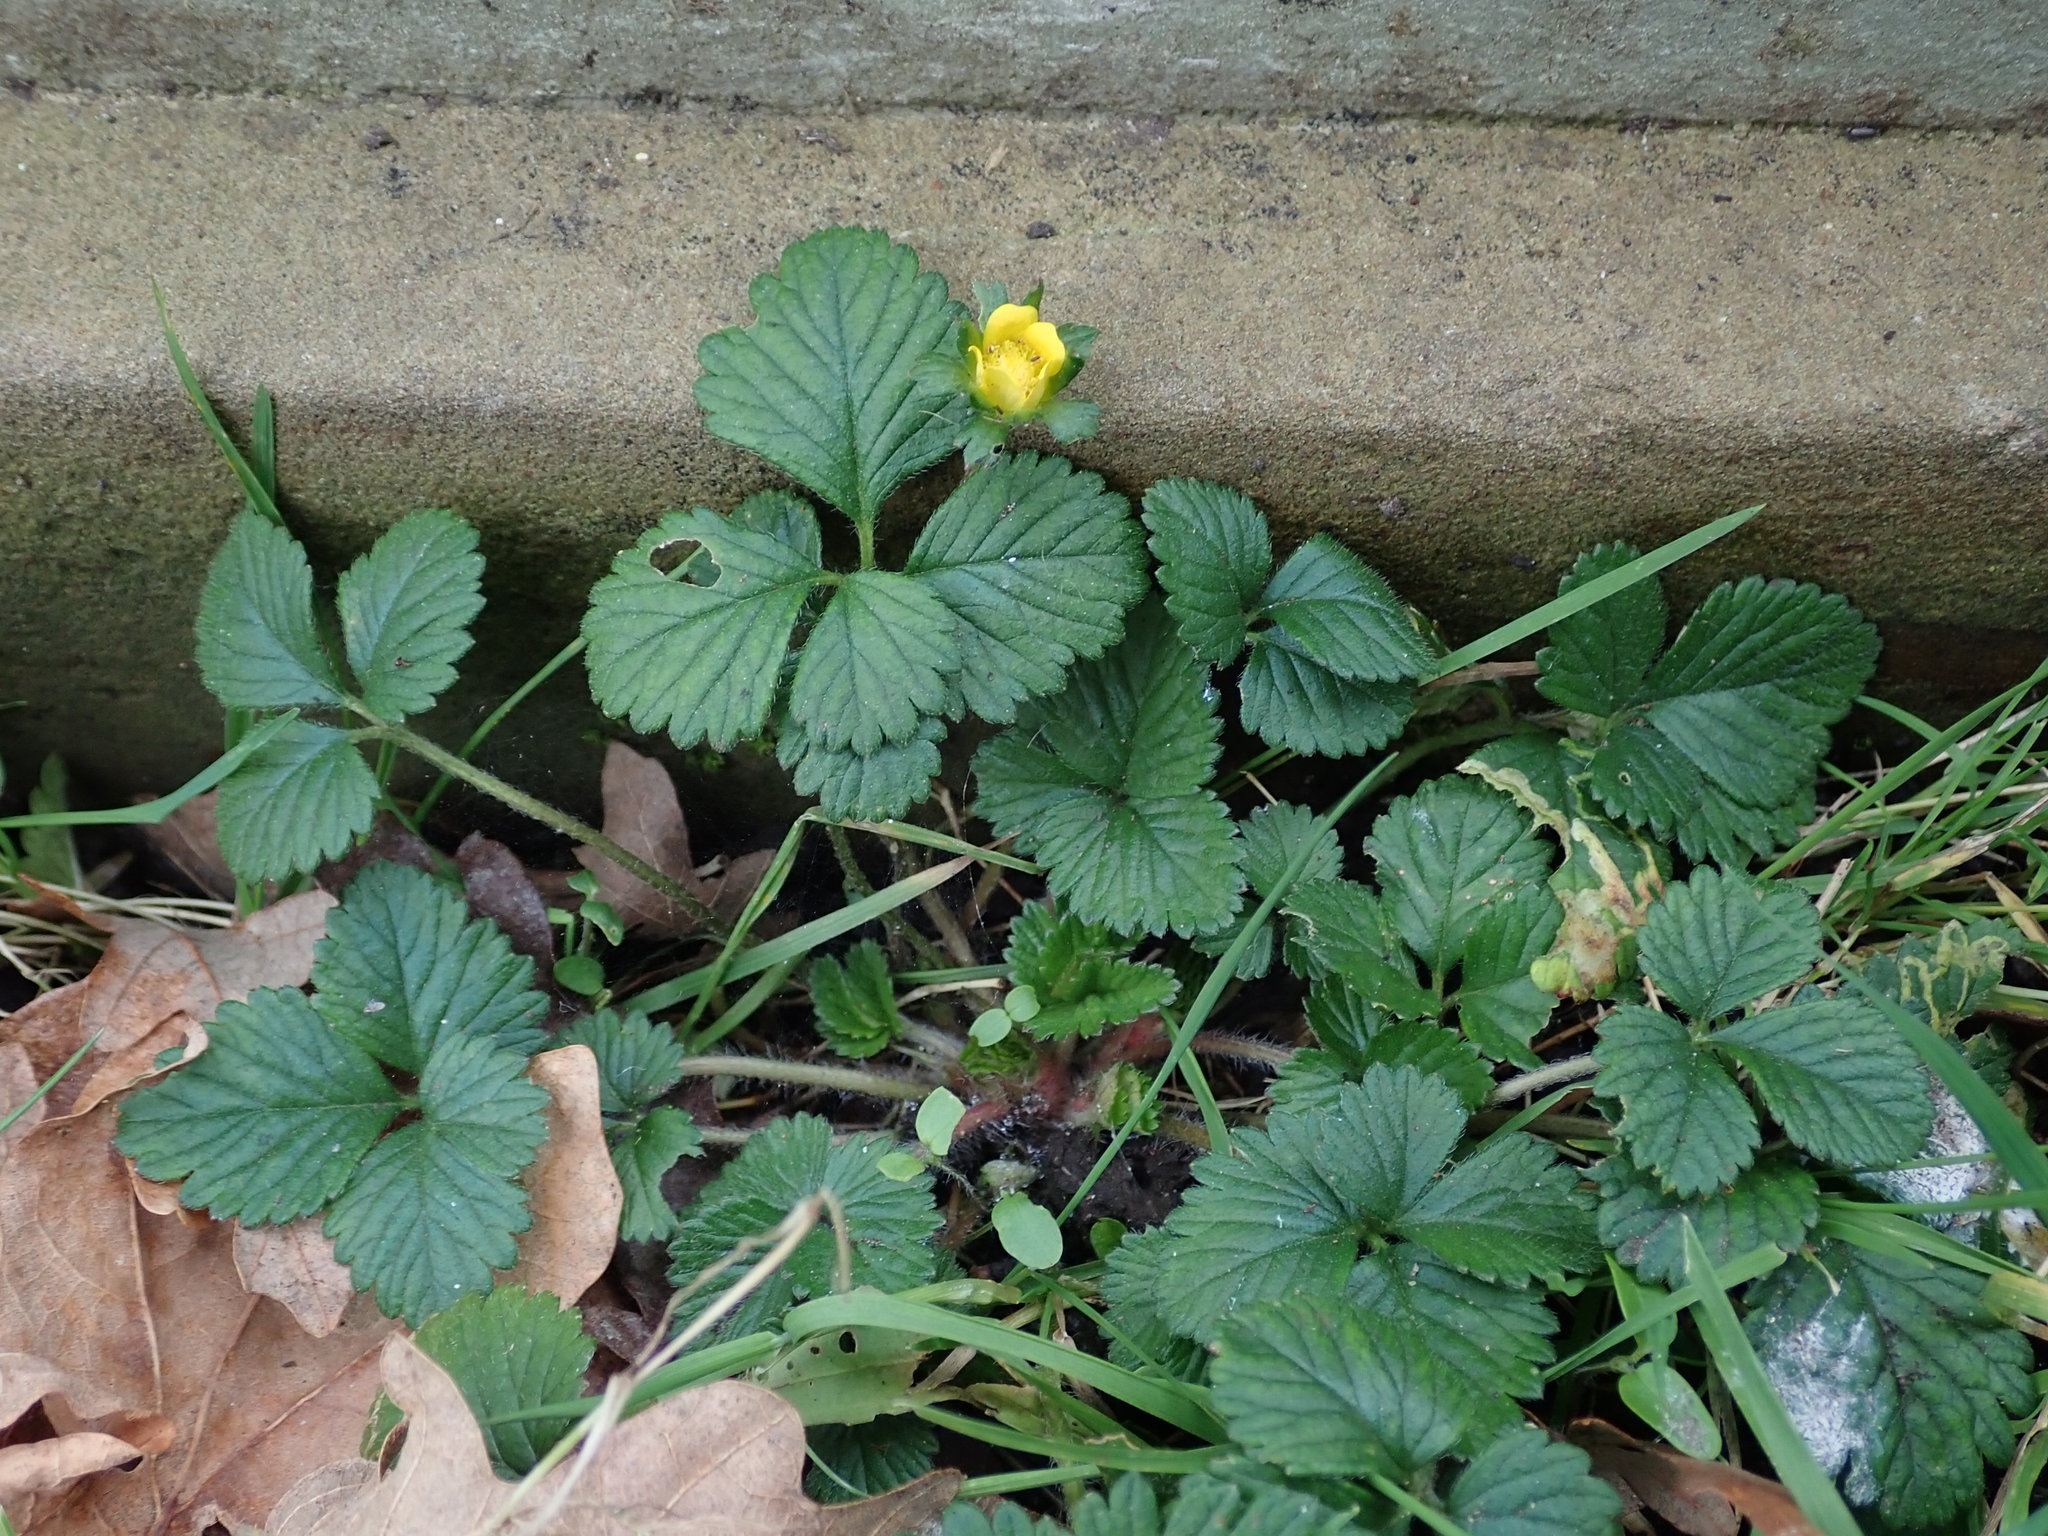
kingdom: Plantae
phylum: Tracheophyta
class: Magnoliopsida
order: Rosales
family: Rosaceae
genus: Potentilla
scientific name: Potentilla indica
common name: Yellow-flowered strawberry
